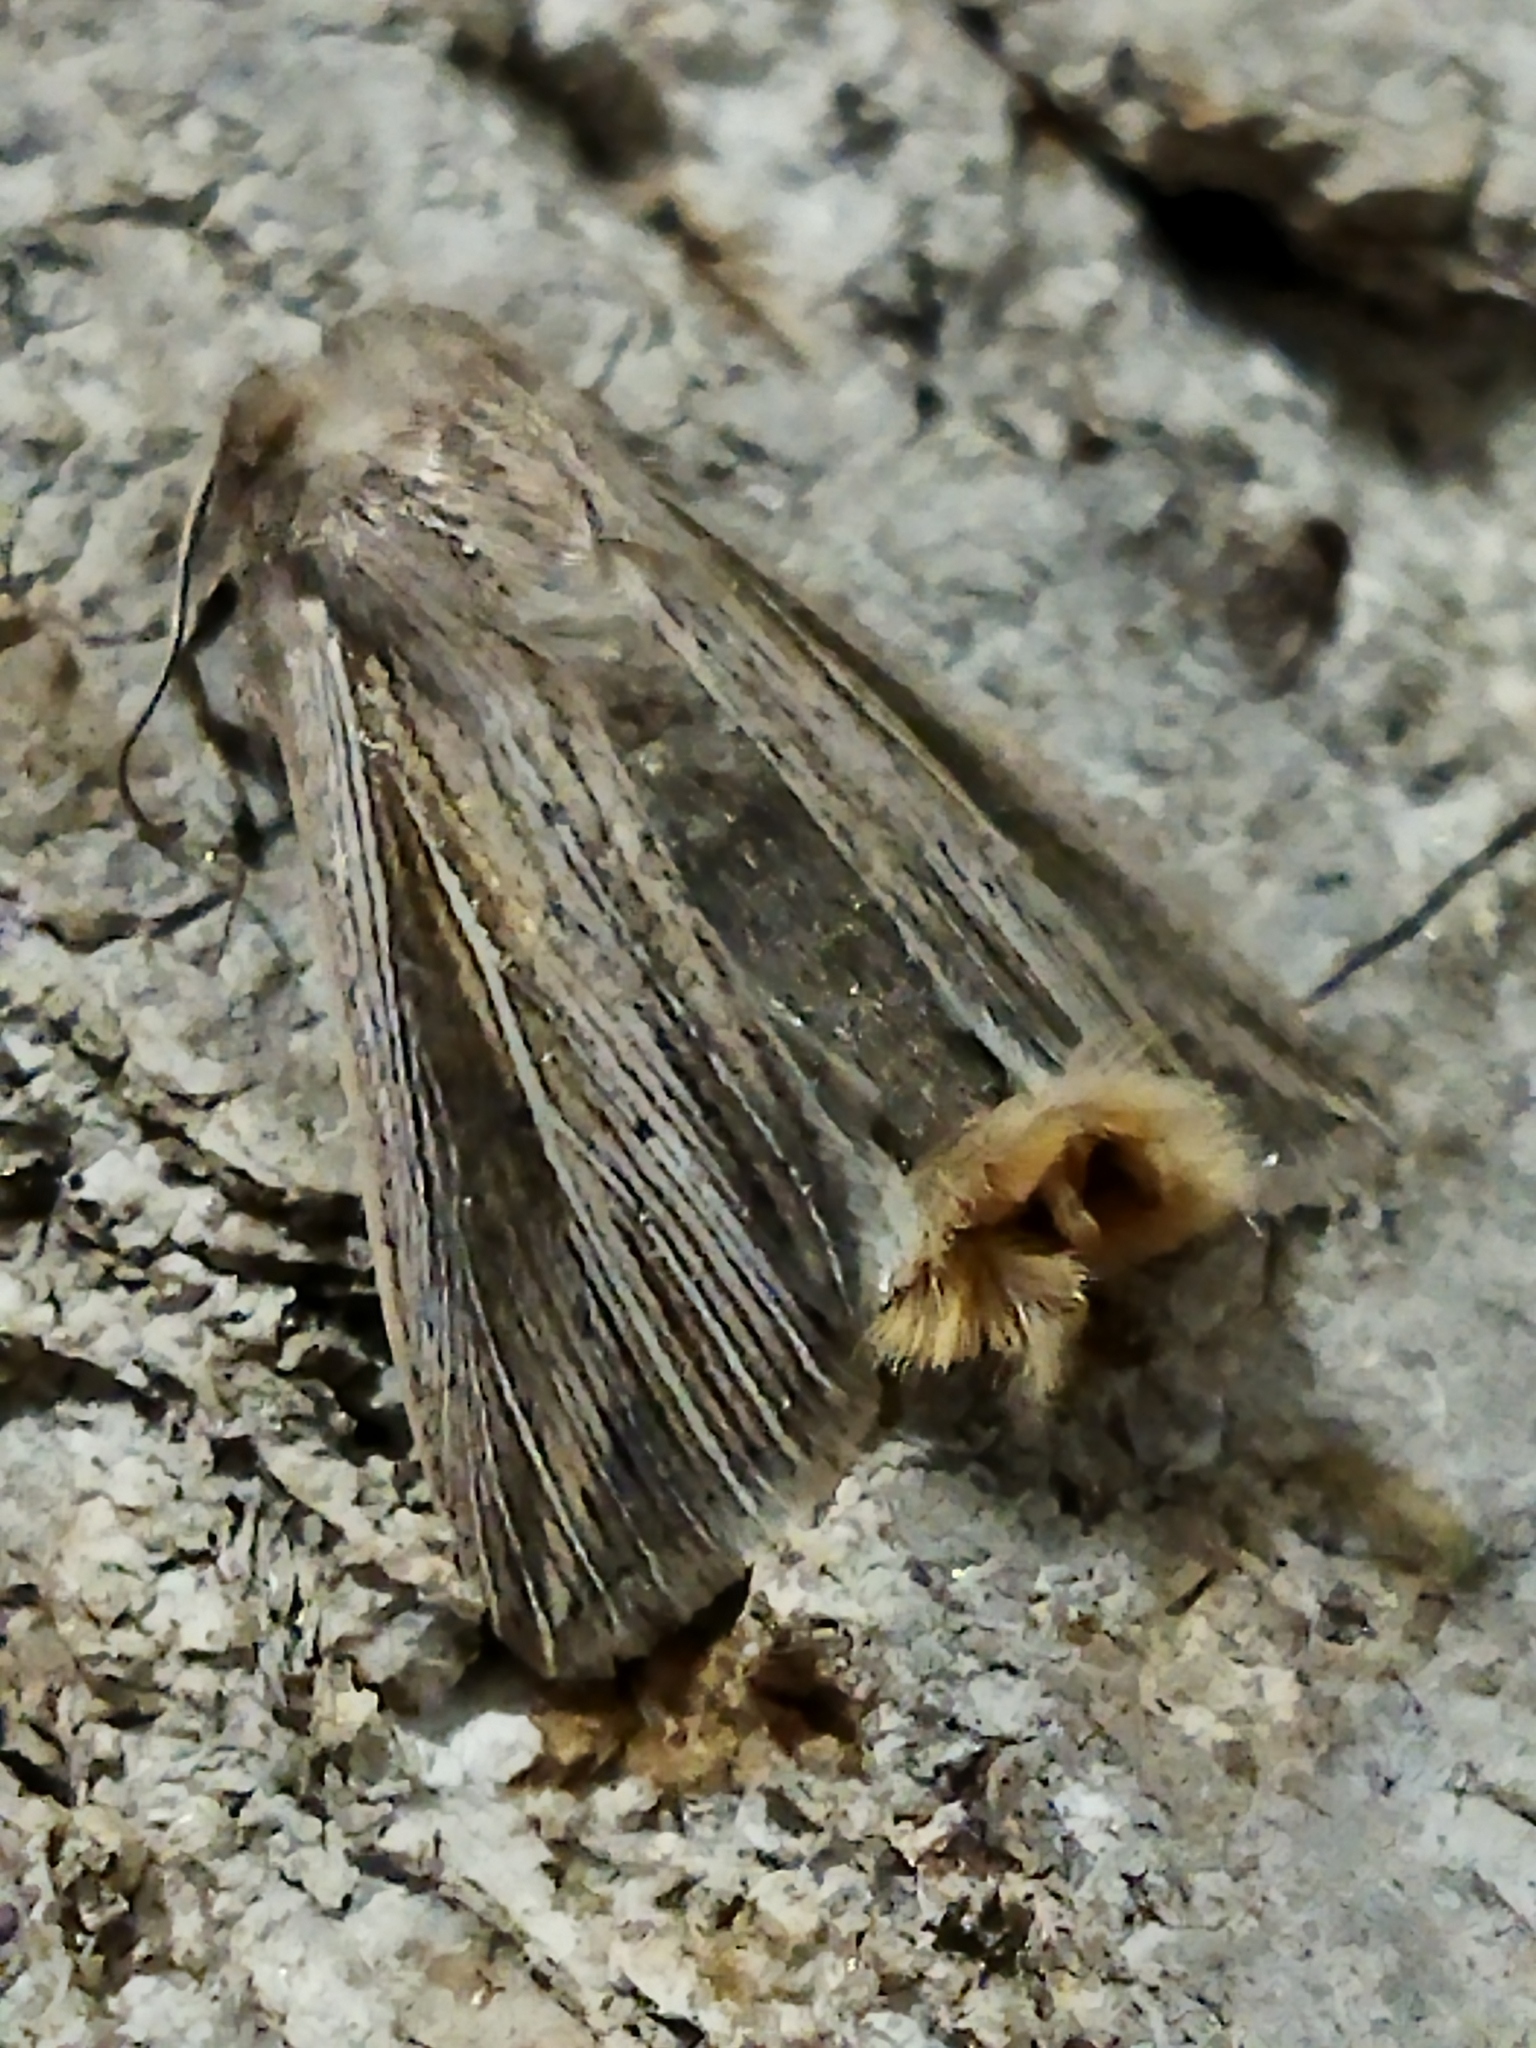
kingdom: Animalia
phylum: Arthropoda
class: Insecta
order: Lepidoptera
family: Noctuidae
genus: Mythimna
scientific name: Mythimna riparia
